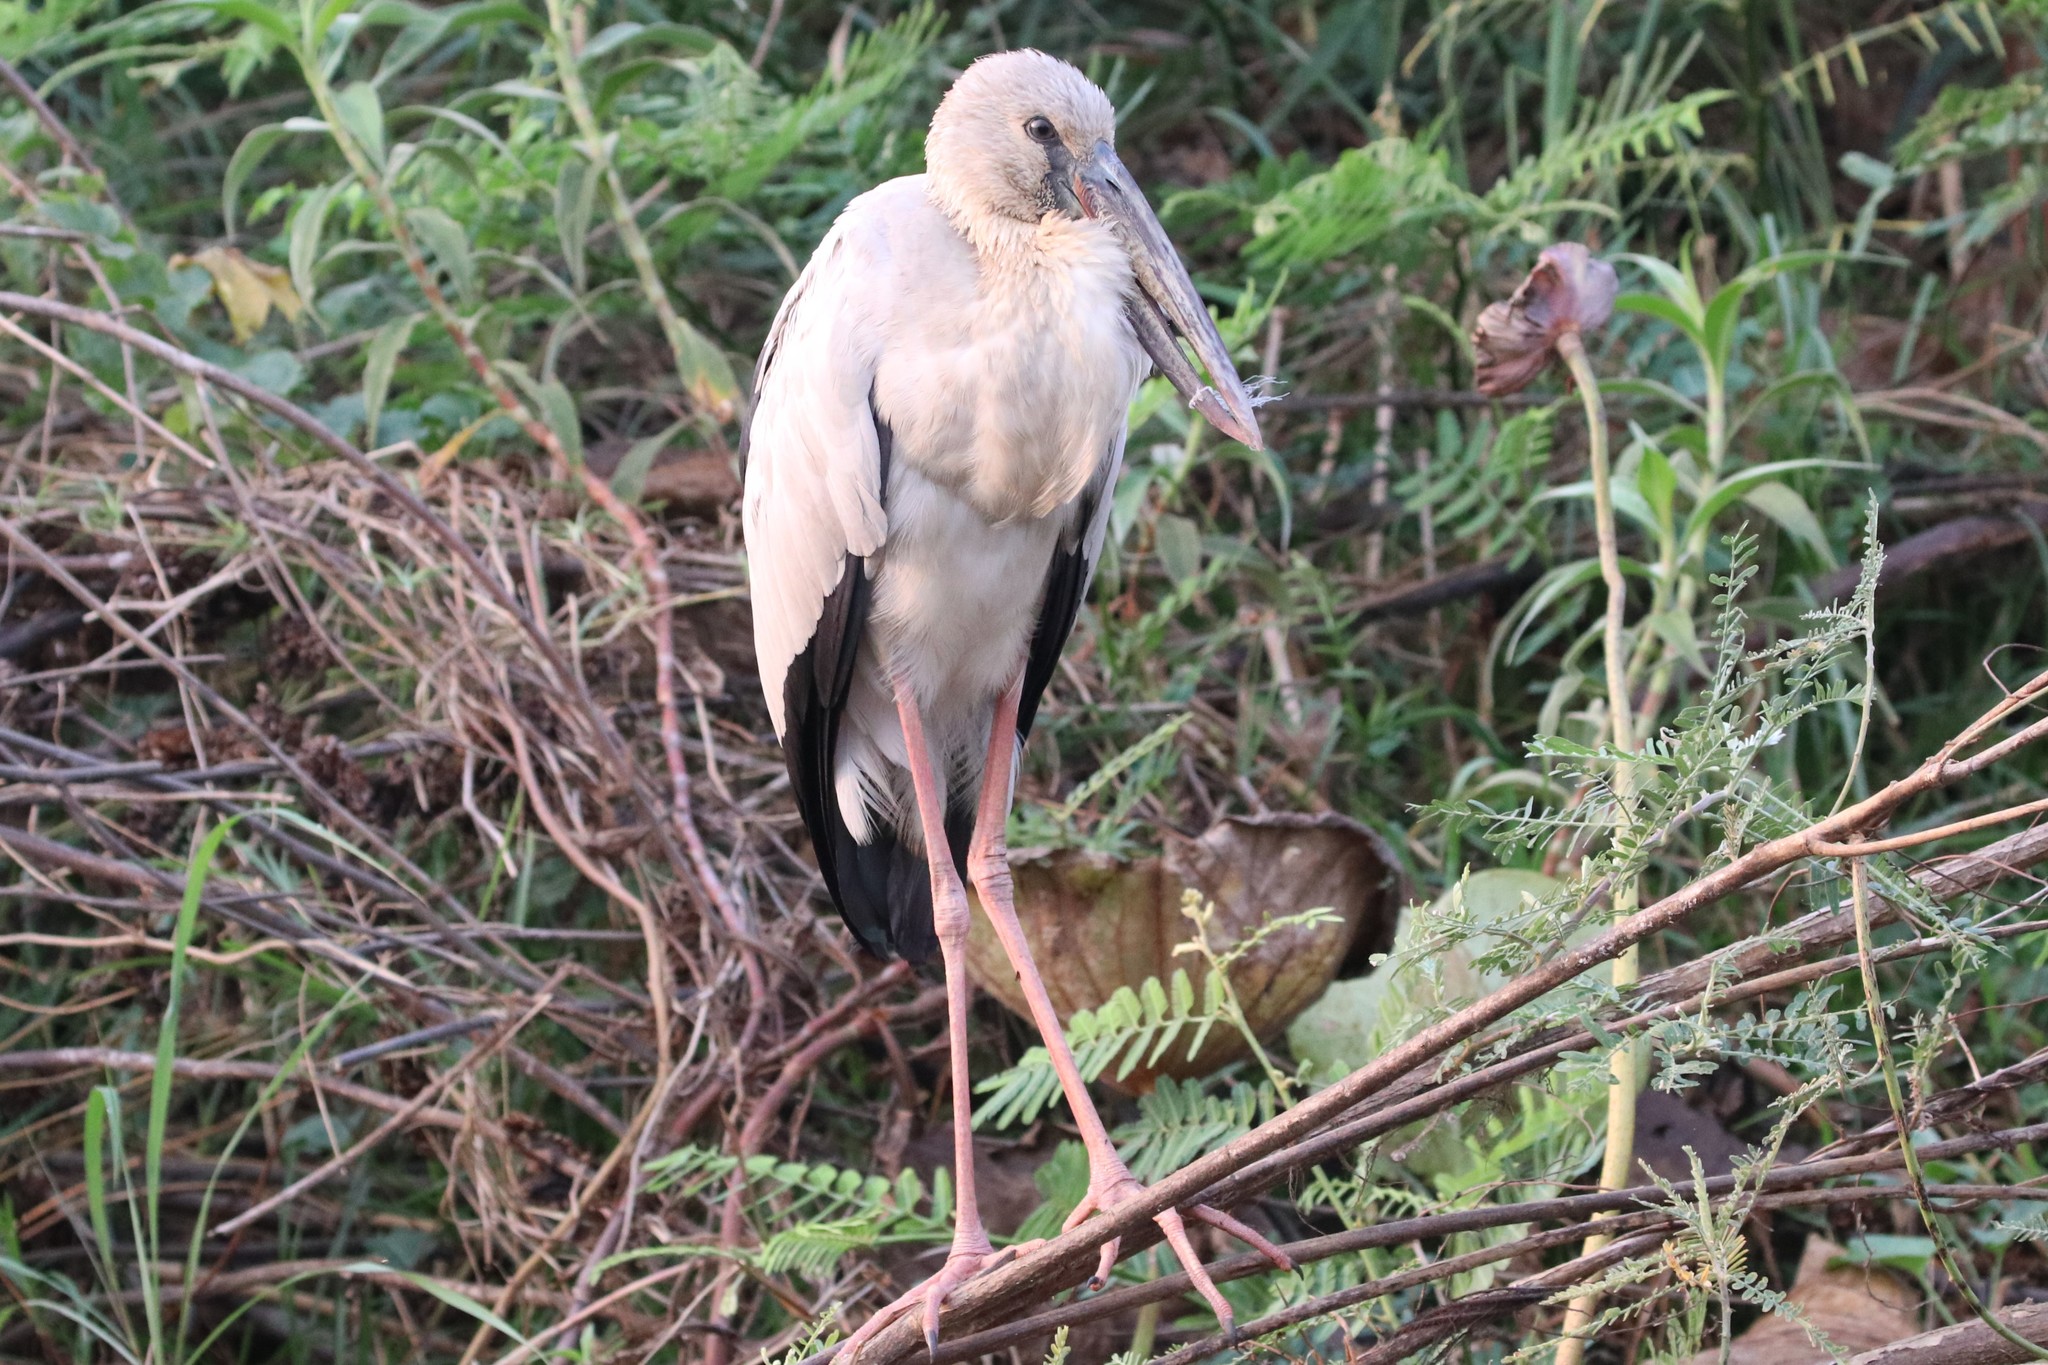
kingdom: Animalia
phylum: Chordata
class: Aves
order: Ciconiiformes
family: Ciconiidae
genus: Anastomus
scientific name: Anastomus oscitans
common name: Asian openbill
